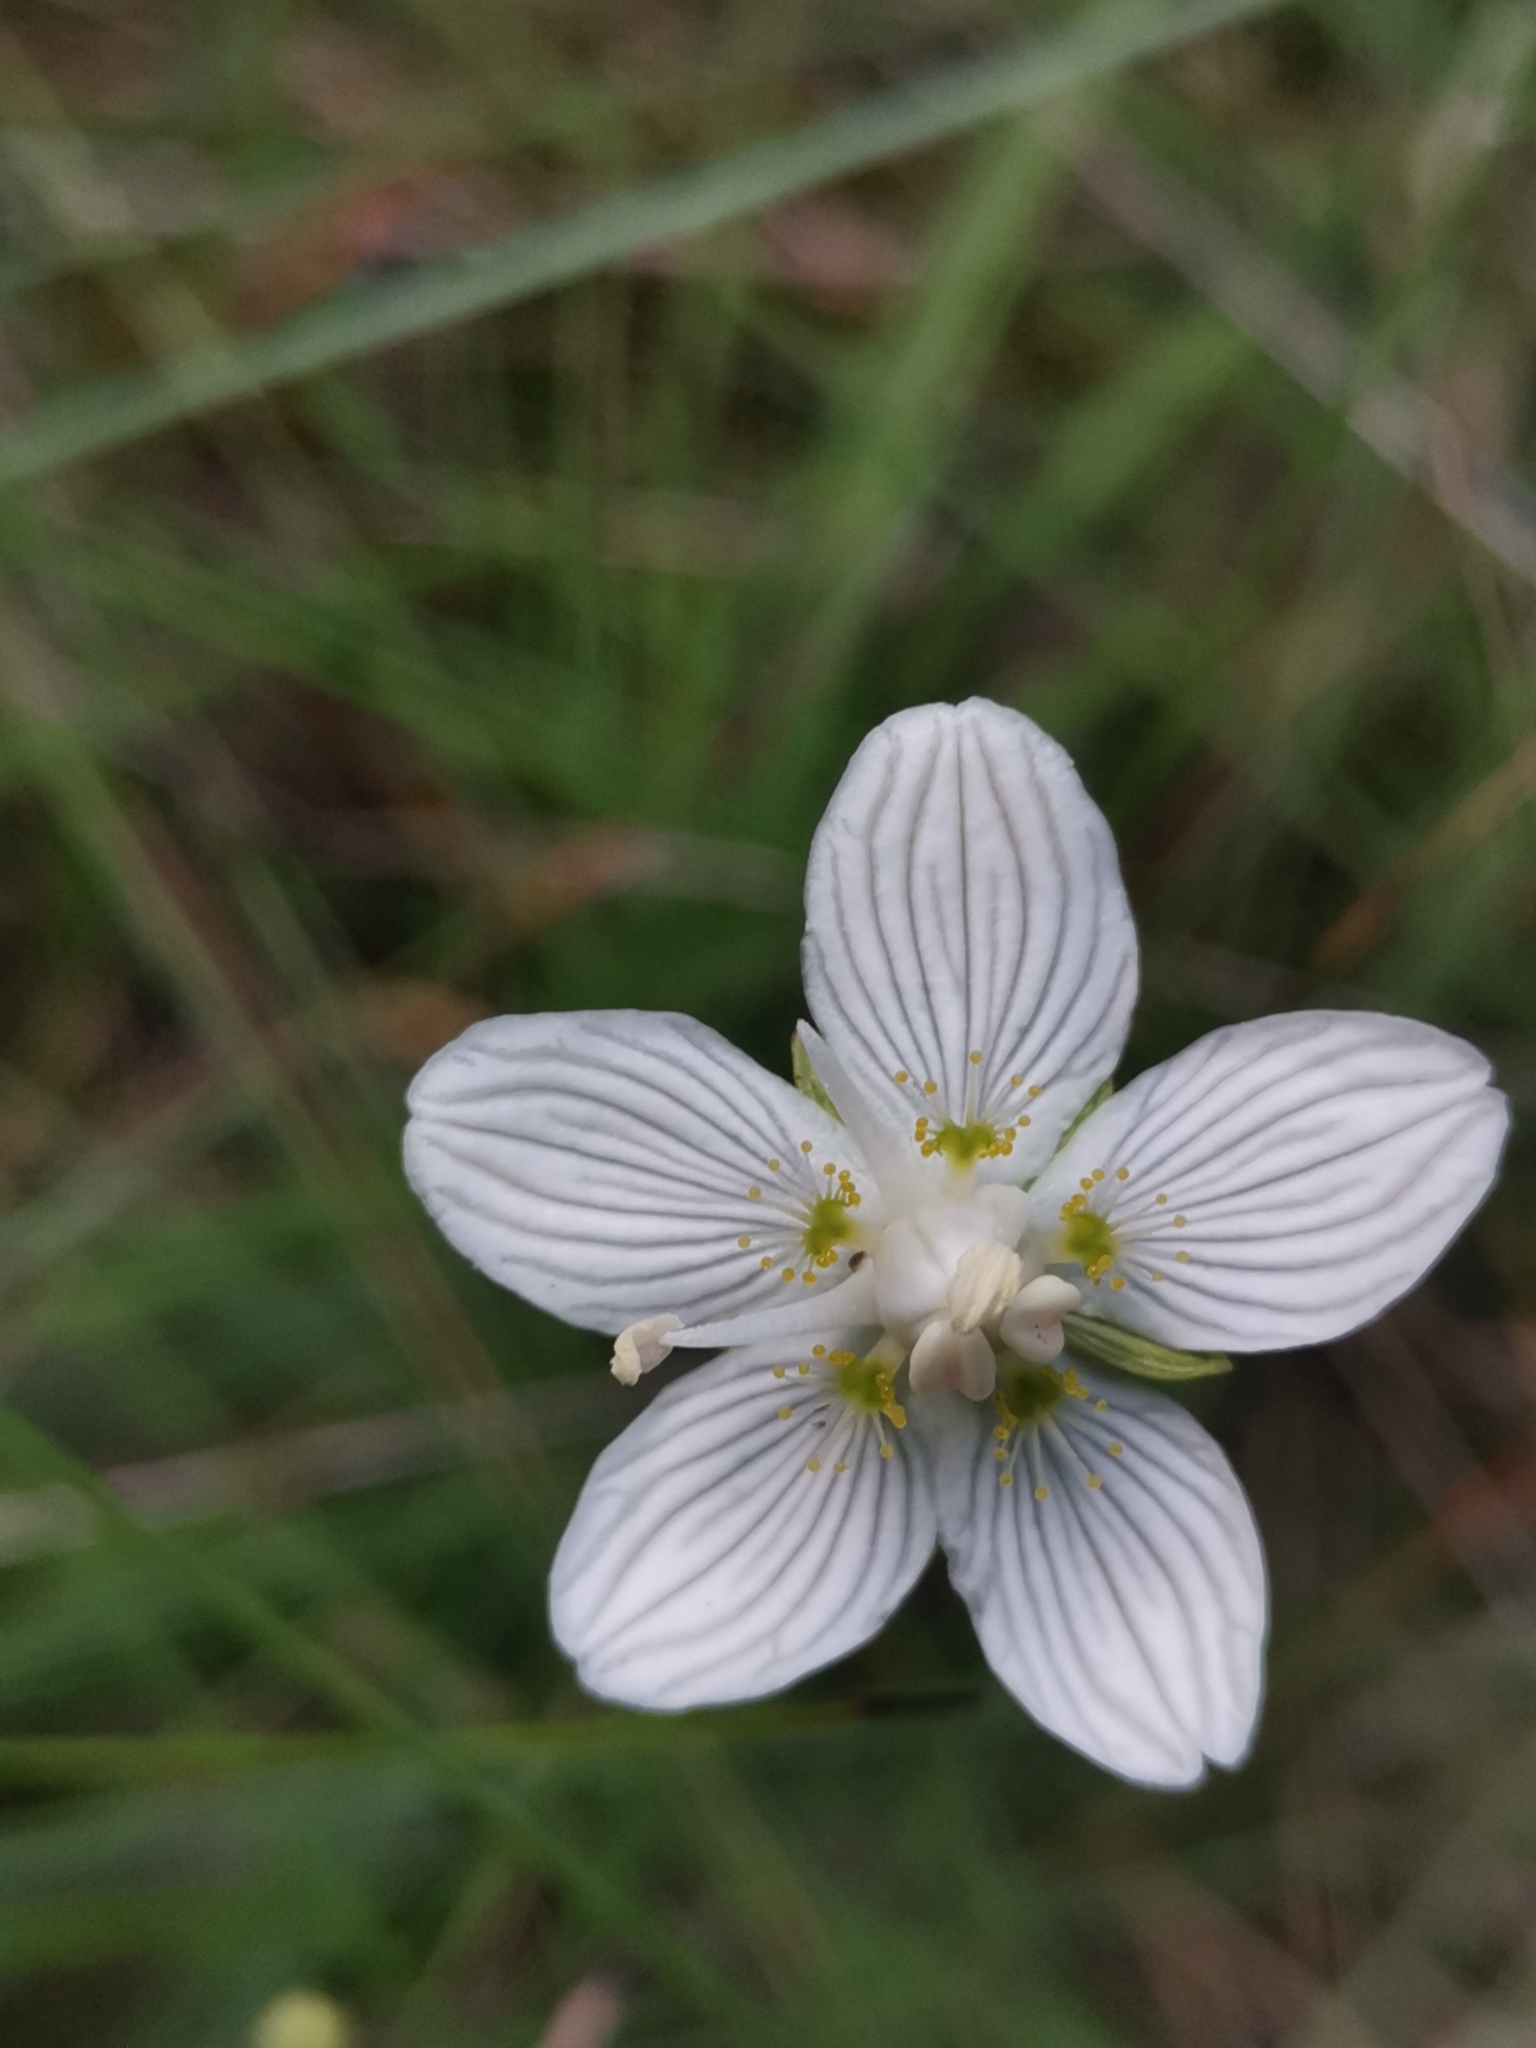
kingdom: Plantae
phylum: Tracheophyta
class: Magnoliopsida
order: Celastrales
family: Parnassiaceae
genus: Parnassia
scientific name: Parnassia palustris
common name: Grass-of-parnassus
